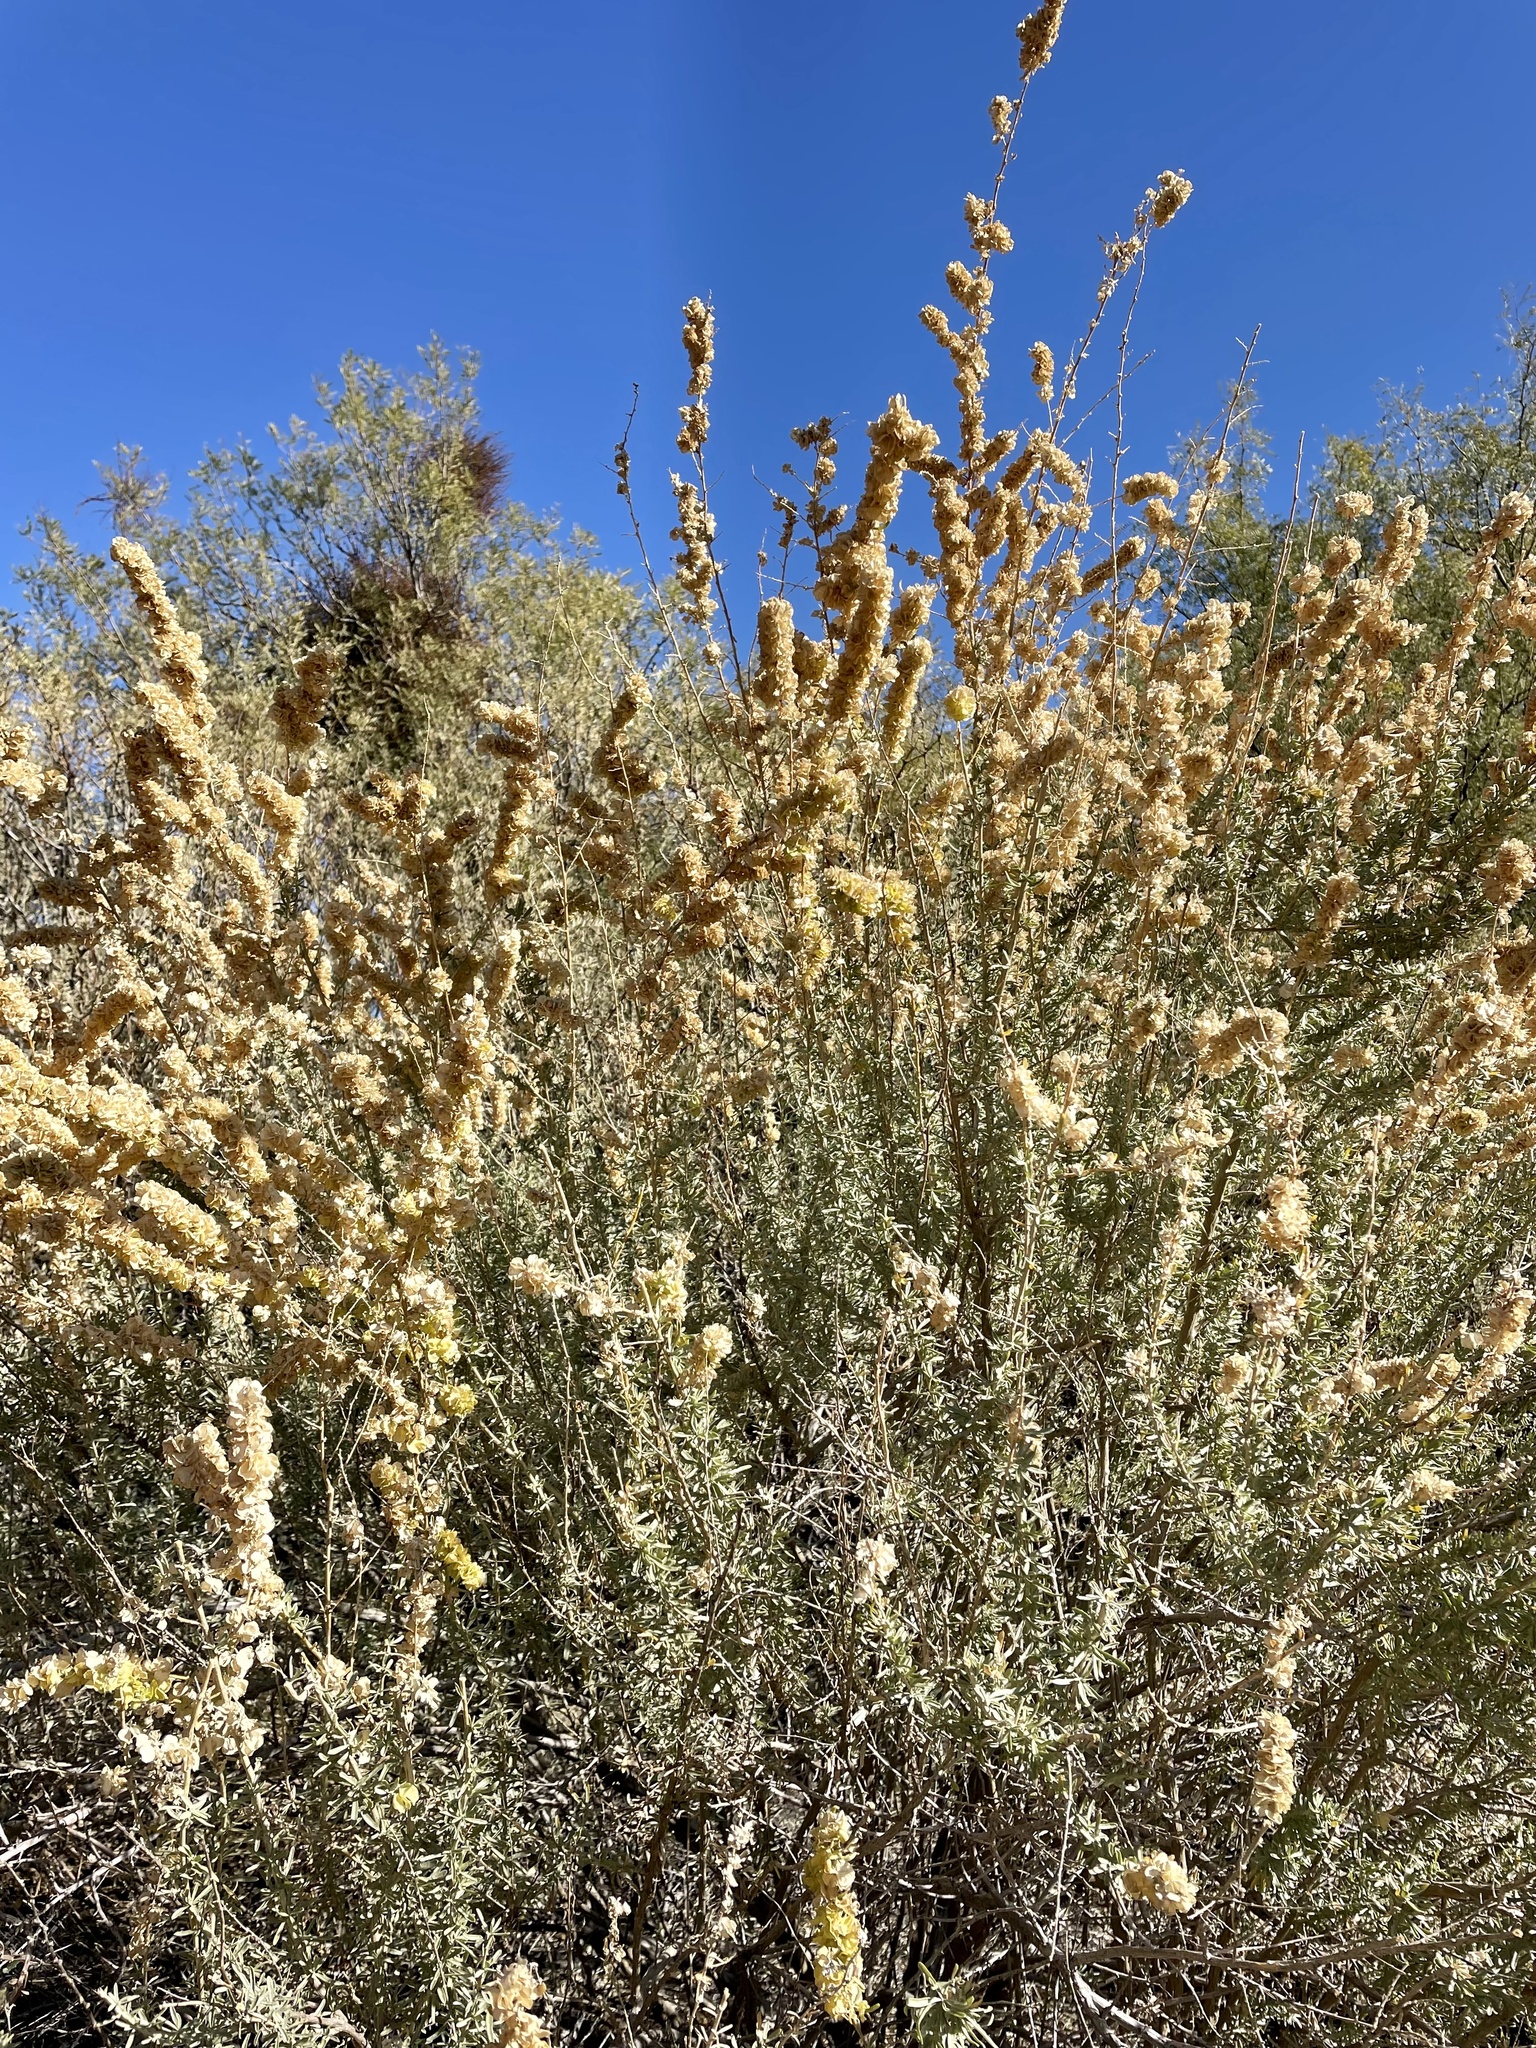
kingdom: Plantae
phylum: Tracheophyta
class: Magnoliopsida
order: Caryophyllales
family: Amaranthaceae
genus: Atriplex
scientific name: Atriplex canescens
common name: Four-wing saltbush
